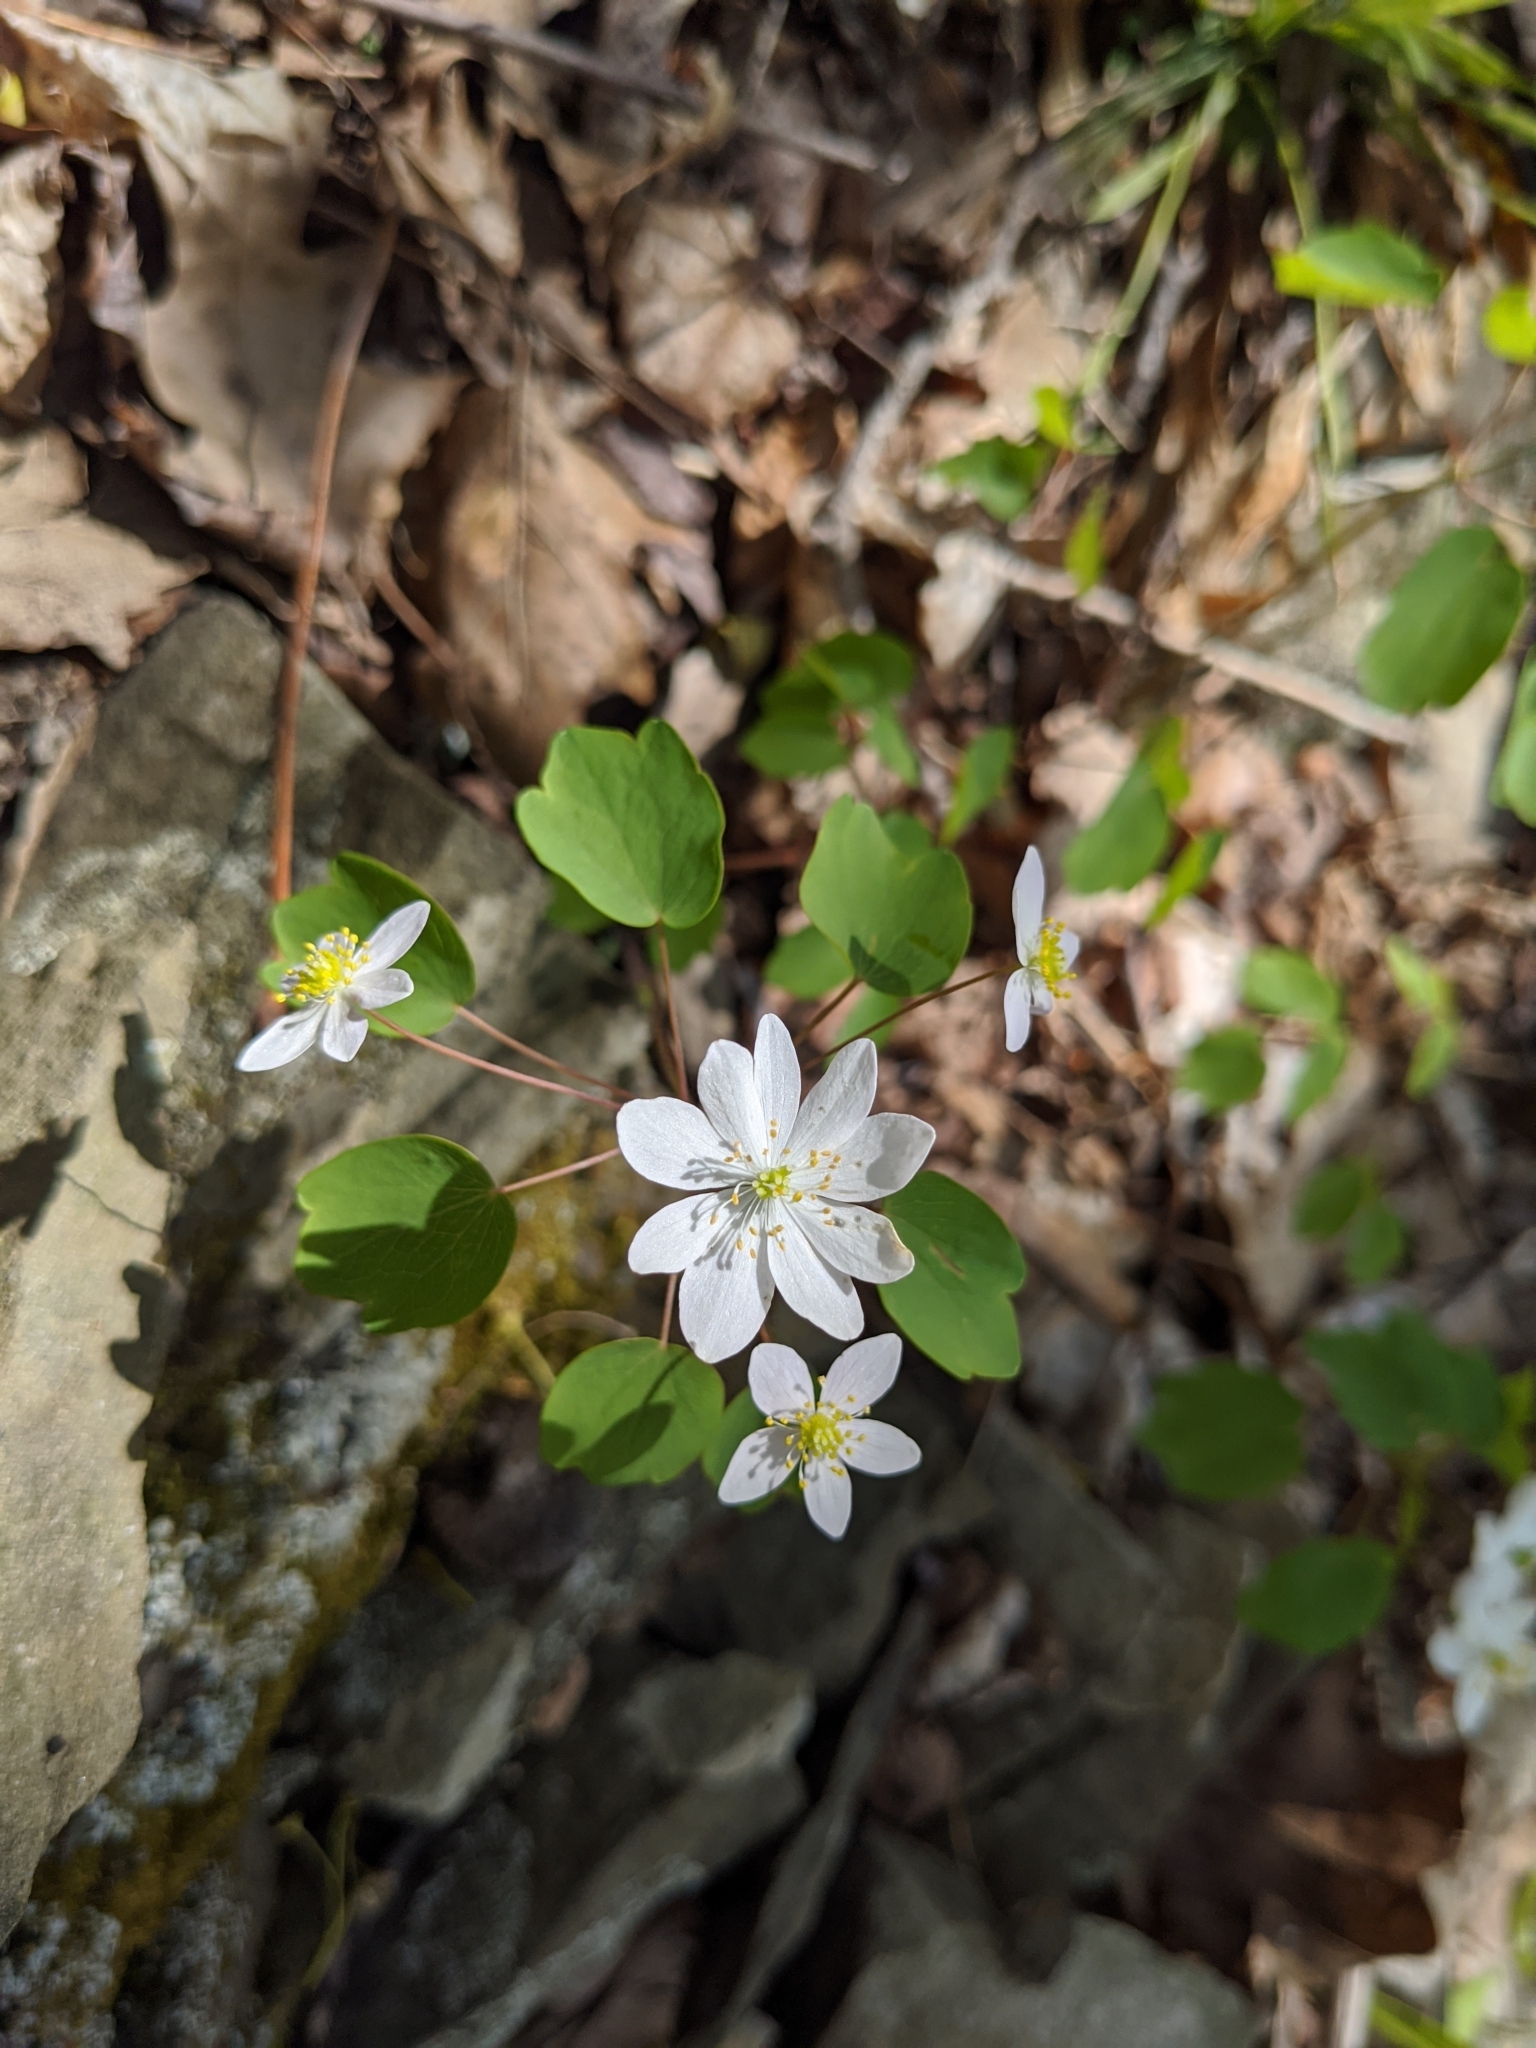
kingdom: Plantae
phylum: Tracheophyta
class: Magnoliopsida
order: Ranunculales
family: Ranunculaceae
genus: Thalictrum
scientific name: Thalictrum thalictroides
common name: Rue-anemone
